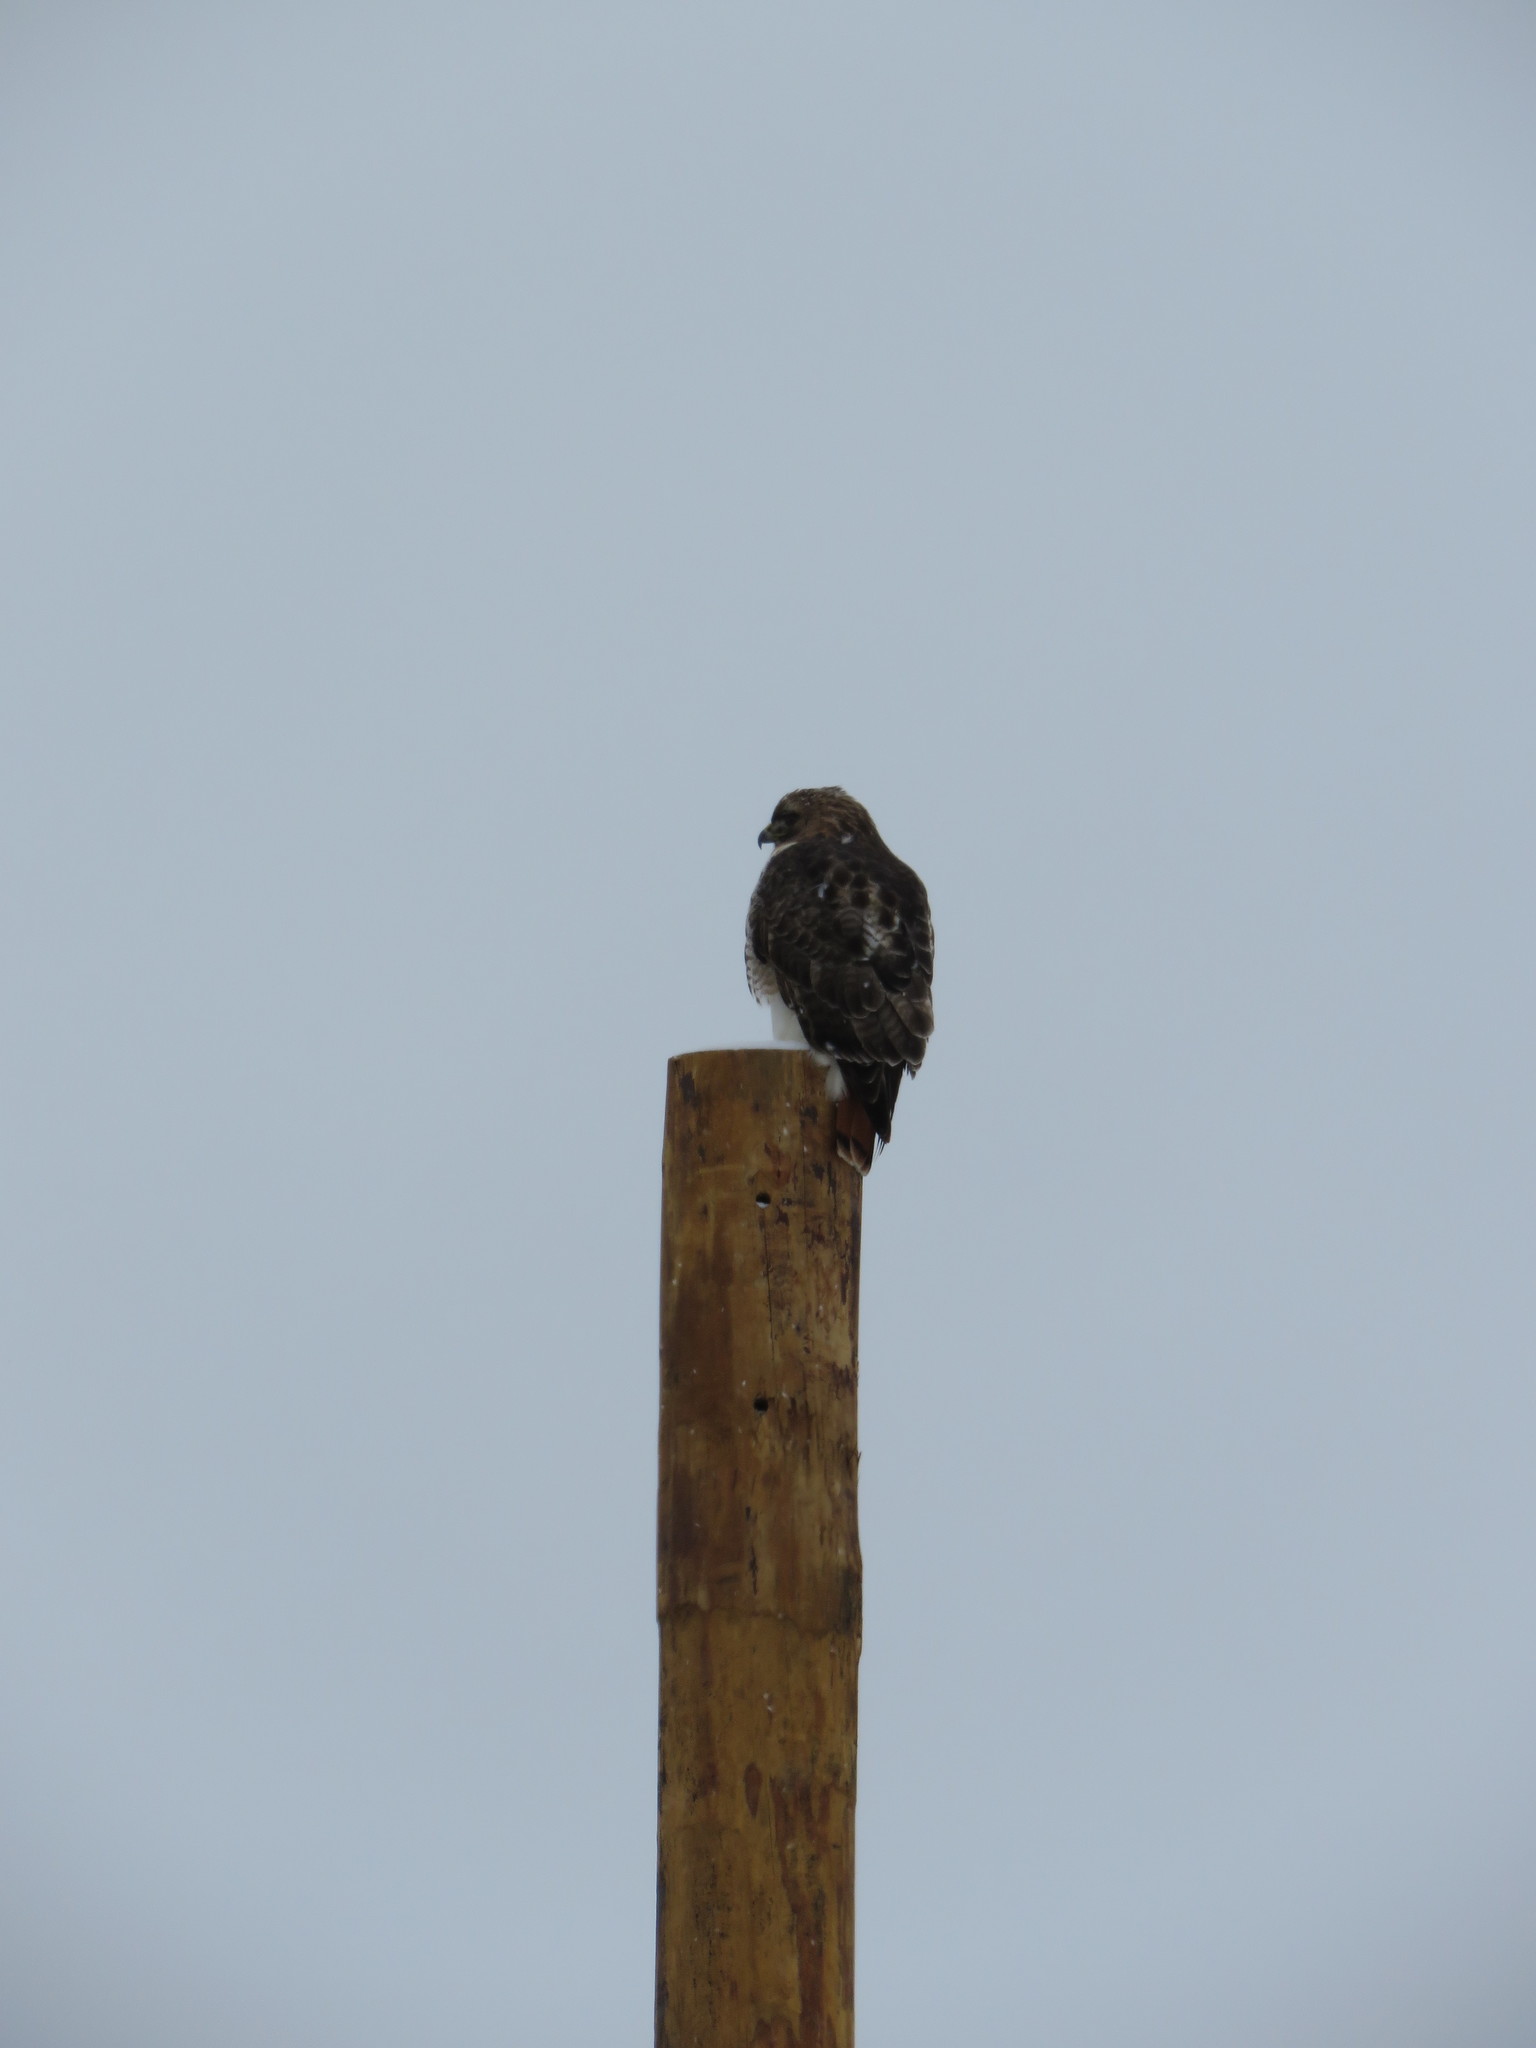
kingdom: Animalia
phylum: Chordata
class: Aves
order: Accipitriformes
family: Accipitridae
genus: Buteo
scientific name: Buteo jamaicensis
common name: Red-tailed hawk
